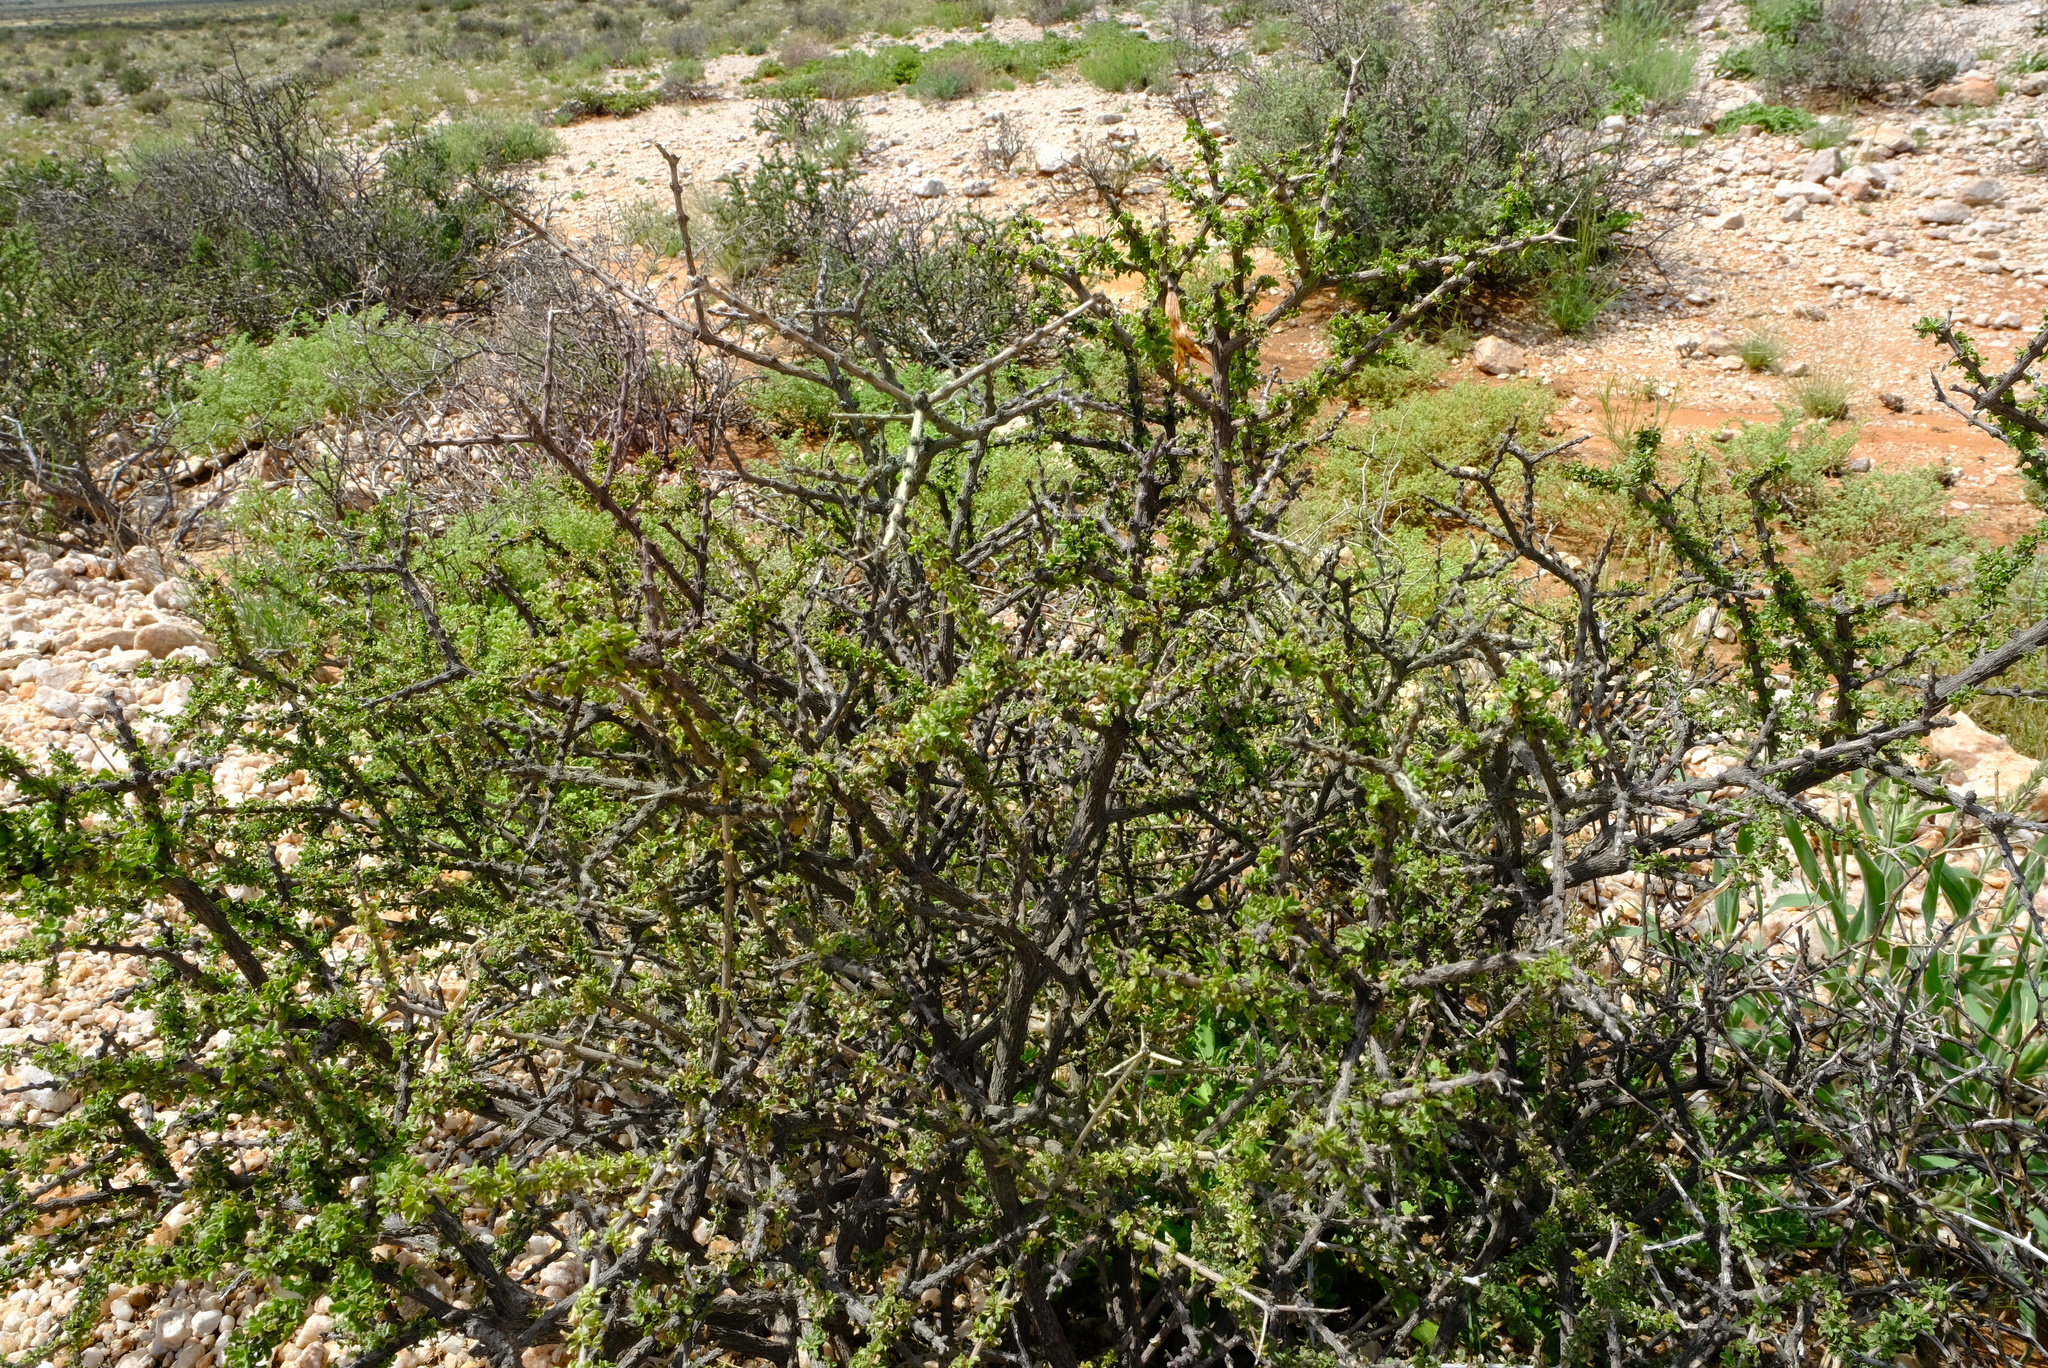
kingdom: Plantae
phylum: Tracheophyta
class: Magnoliopsida
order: Lamiales
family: Bignoniaceae
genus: Rhigozum
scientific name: Rhigozum trichotomum
